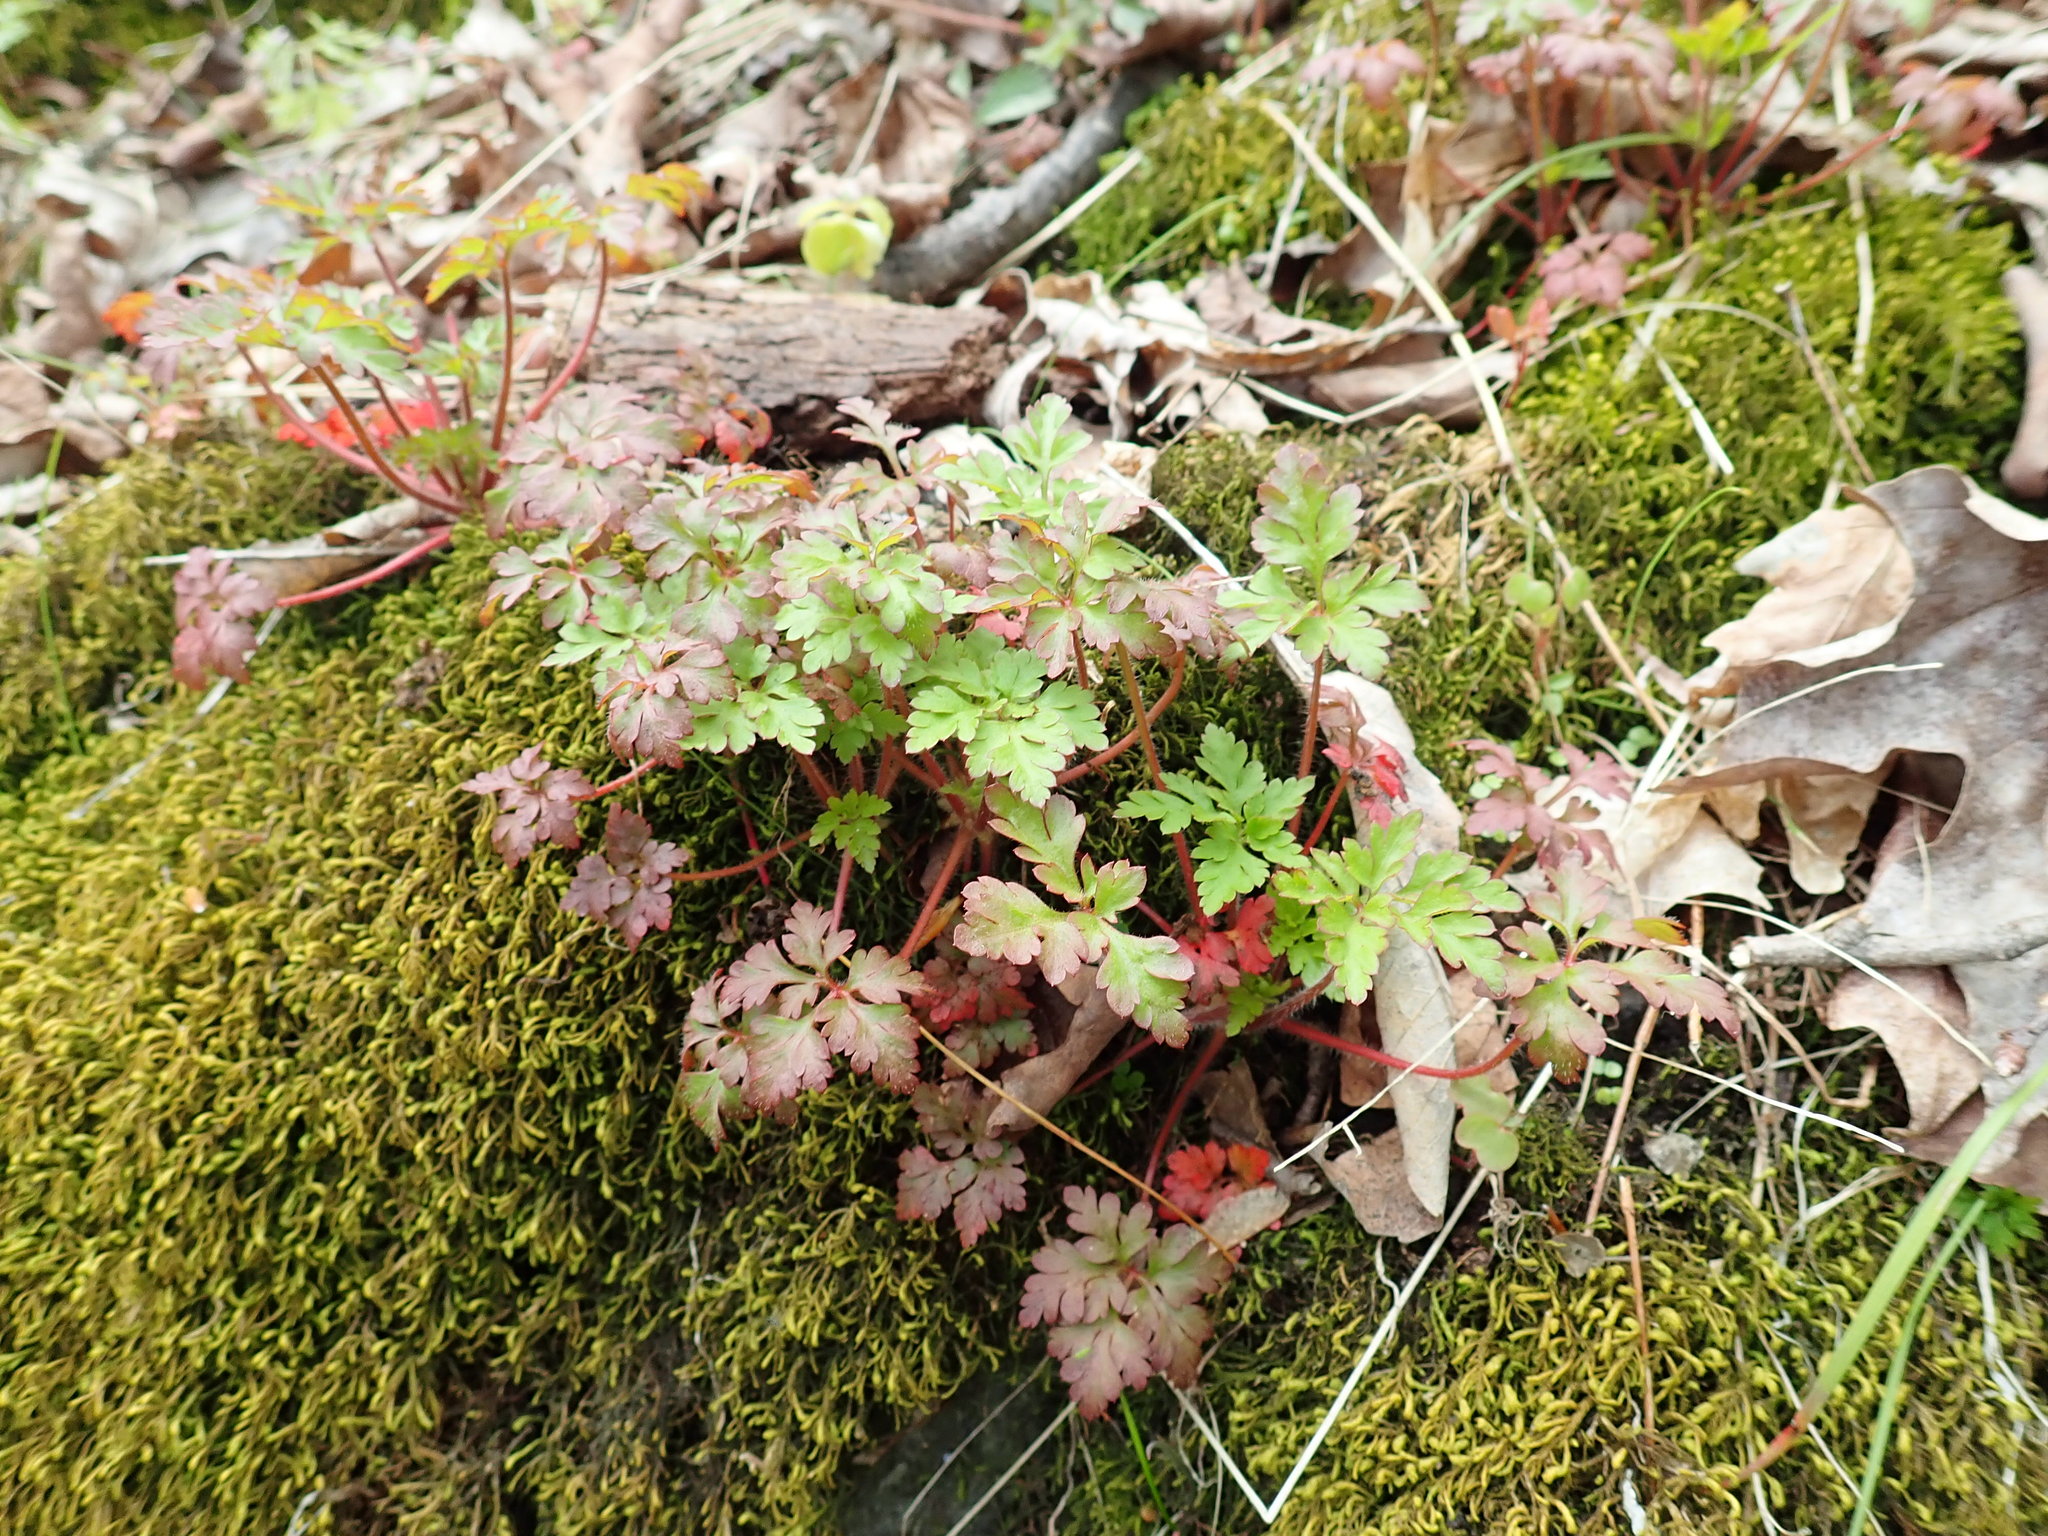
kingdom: Plantae
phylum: Tracheophyta
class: Magnoliopsida
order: Geraniales
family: Geraniaceae
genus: Geranium
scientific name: Geranium robertianum
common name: Herb-robert
